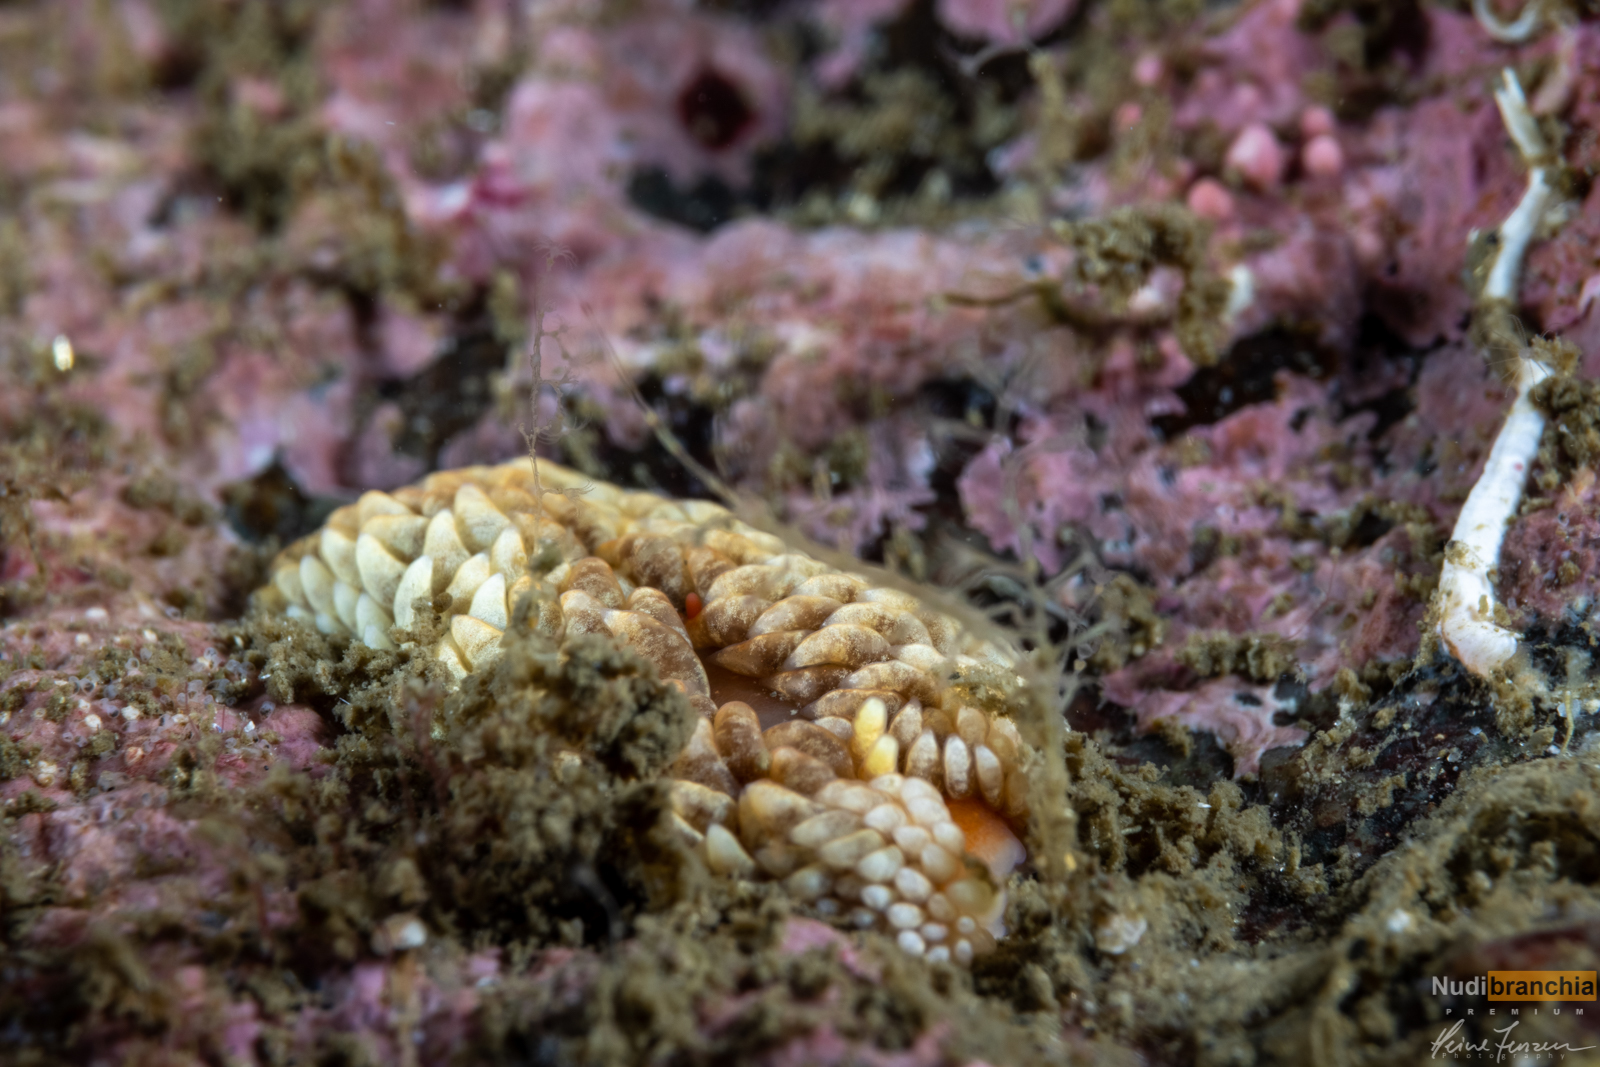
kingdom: Animalia
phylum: Mollusca
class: Gastropoda
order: Nudibranchia
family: Aeolidiidae
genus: Aeolidiella
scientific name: Aeolidiella glauca
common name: Orange-brown aeolid
